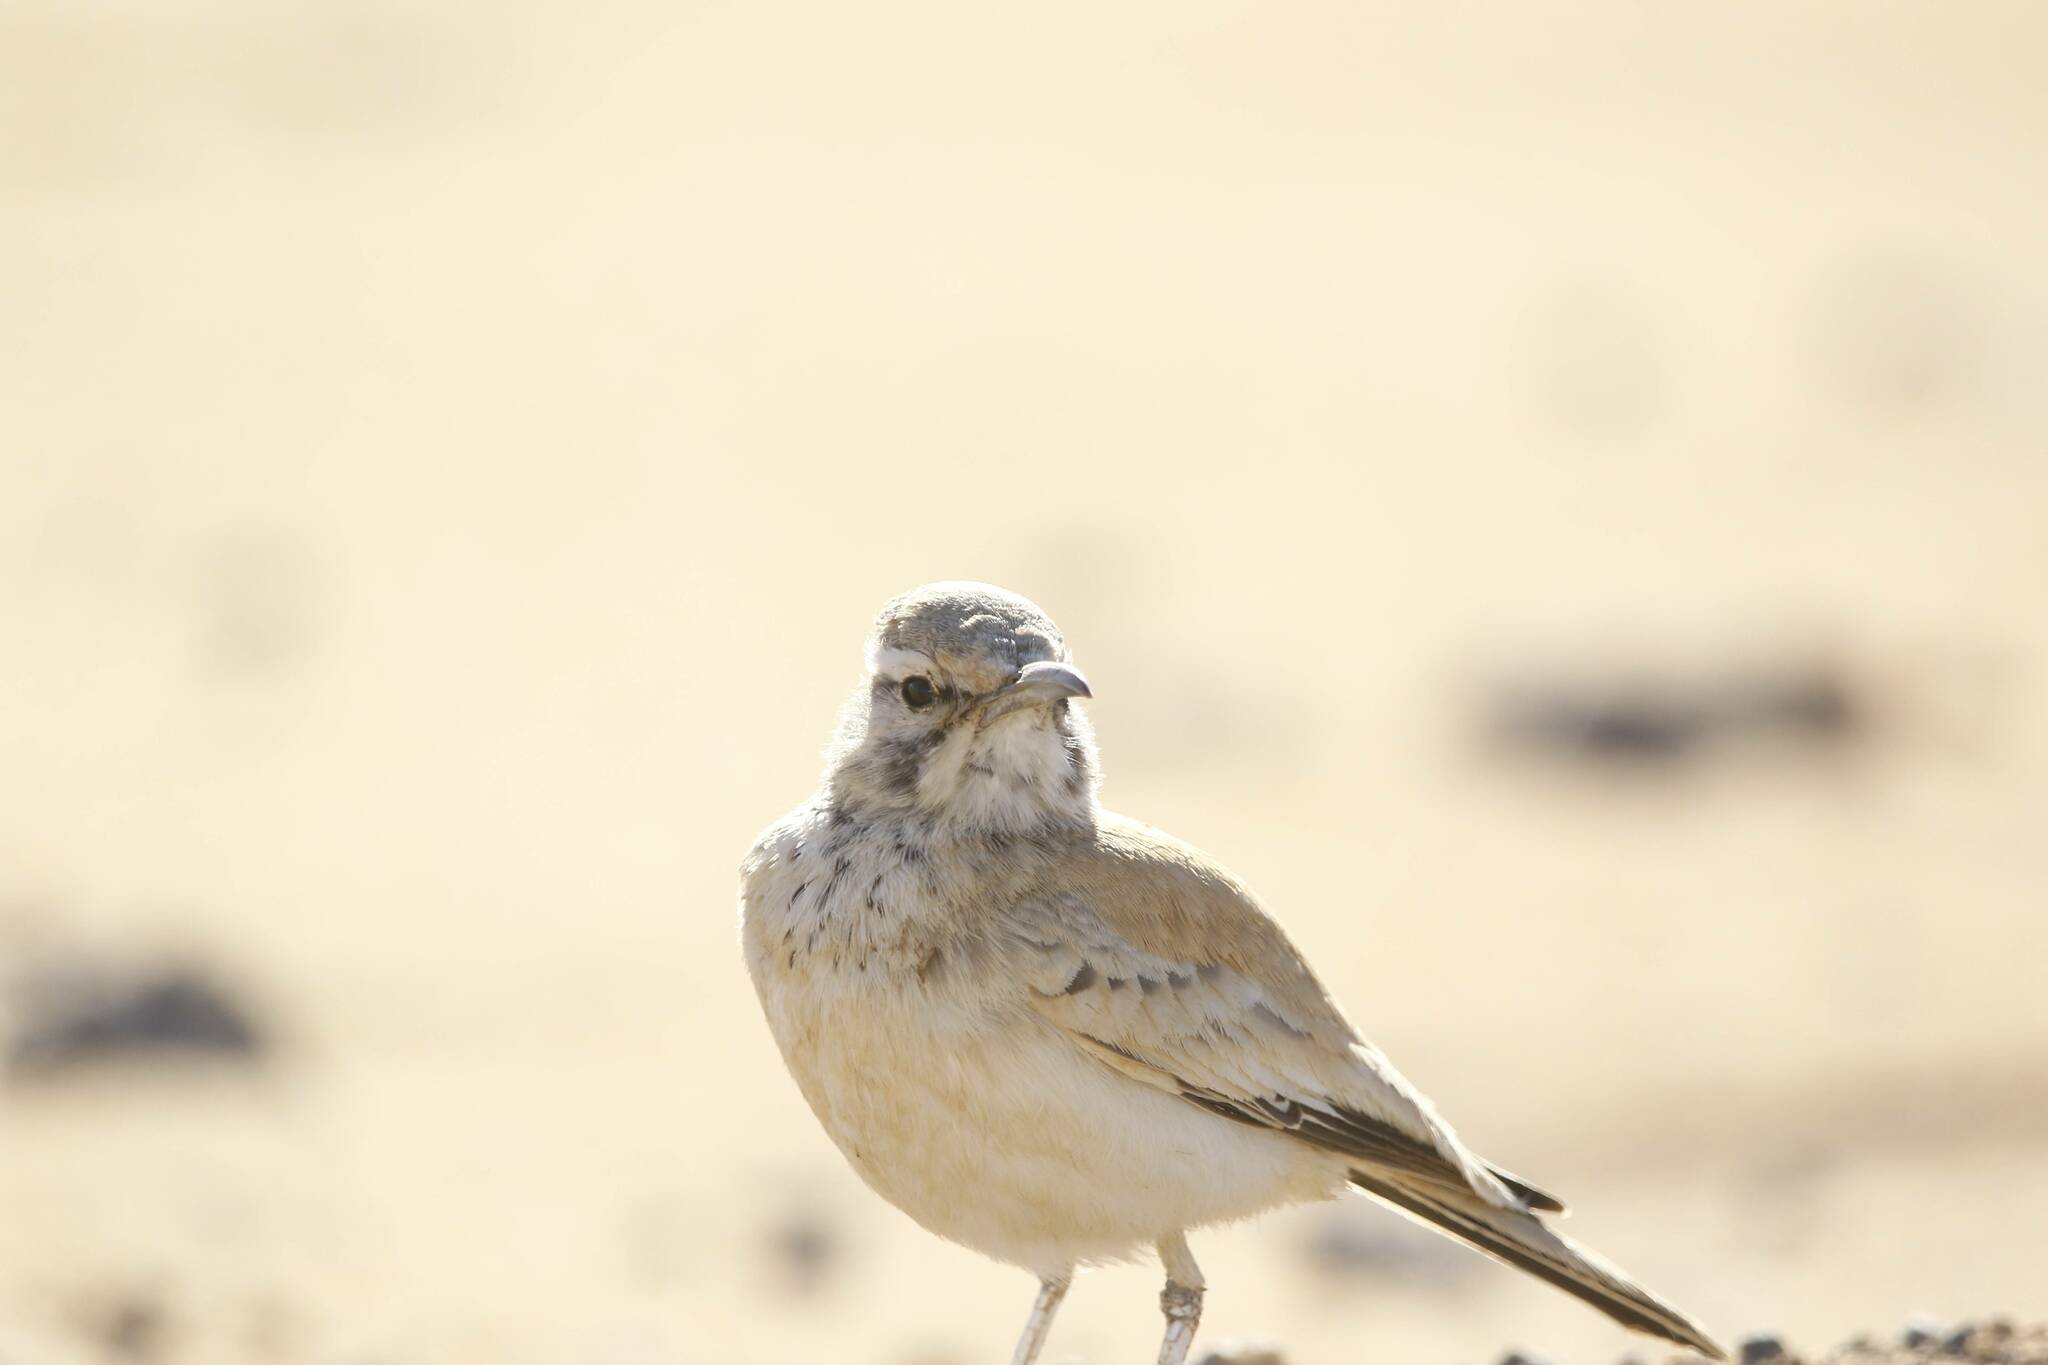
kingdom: Animalia
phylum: Chordata
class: Aves
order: Passeriformes
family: Alaudidae
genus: Alaemon
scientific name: Alaemon alaudipes
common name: Greater hoopoe-lark
